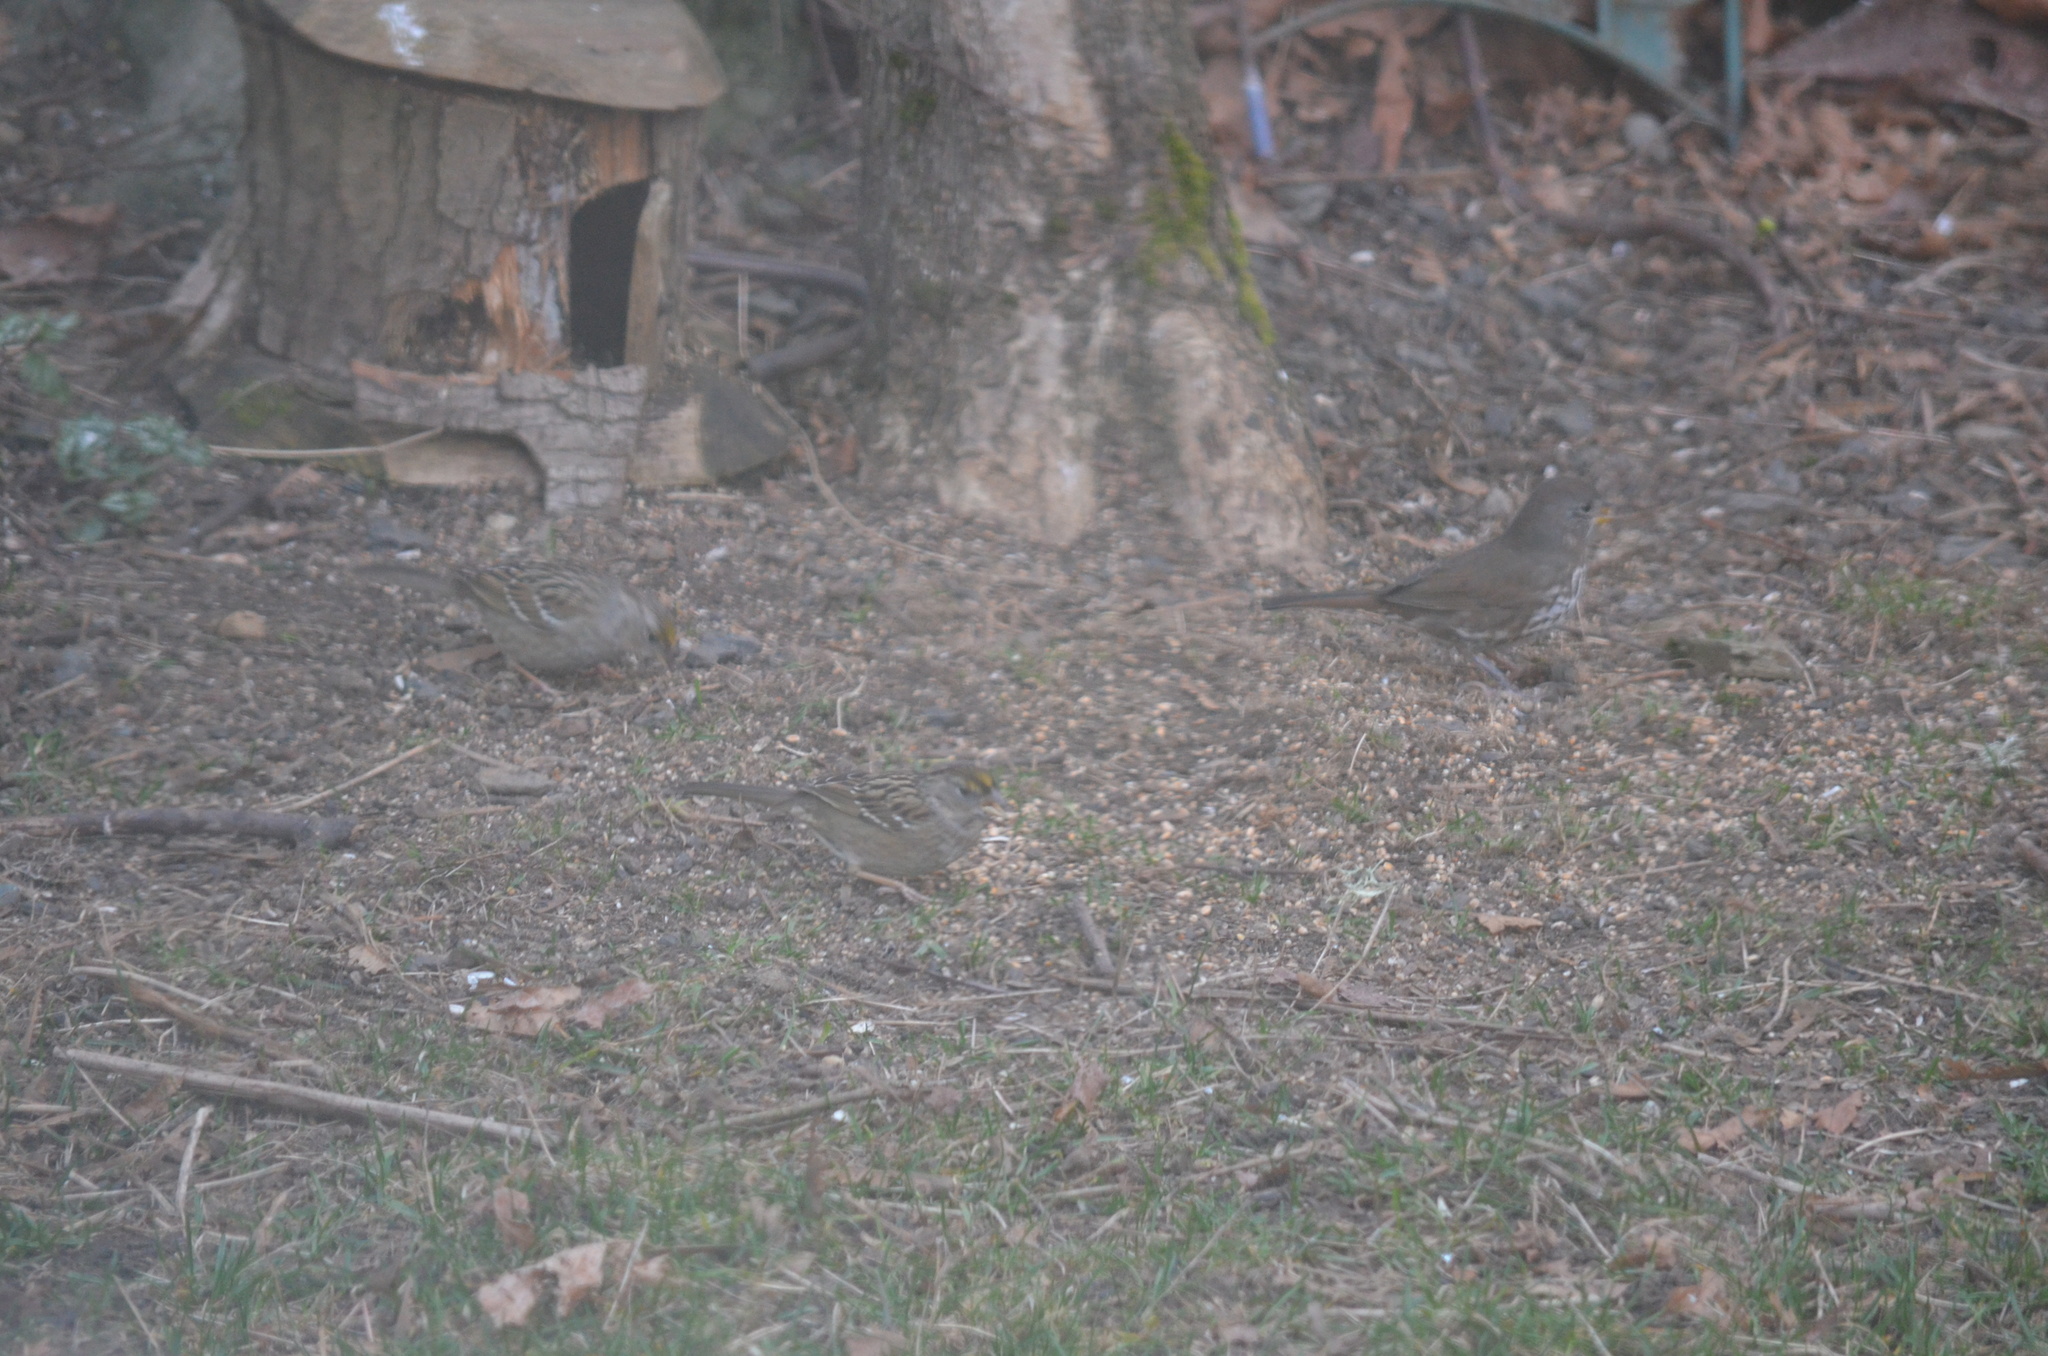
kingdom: Animalia
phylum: Chordata
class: Aves
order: Passeriformes
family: Passerellidae
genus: Zonotrichia
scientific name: Zonotrichia atricapilla
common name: Golden-crowned sparrow
